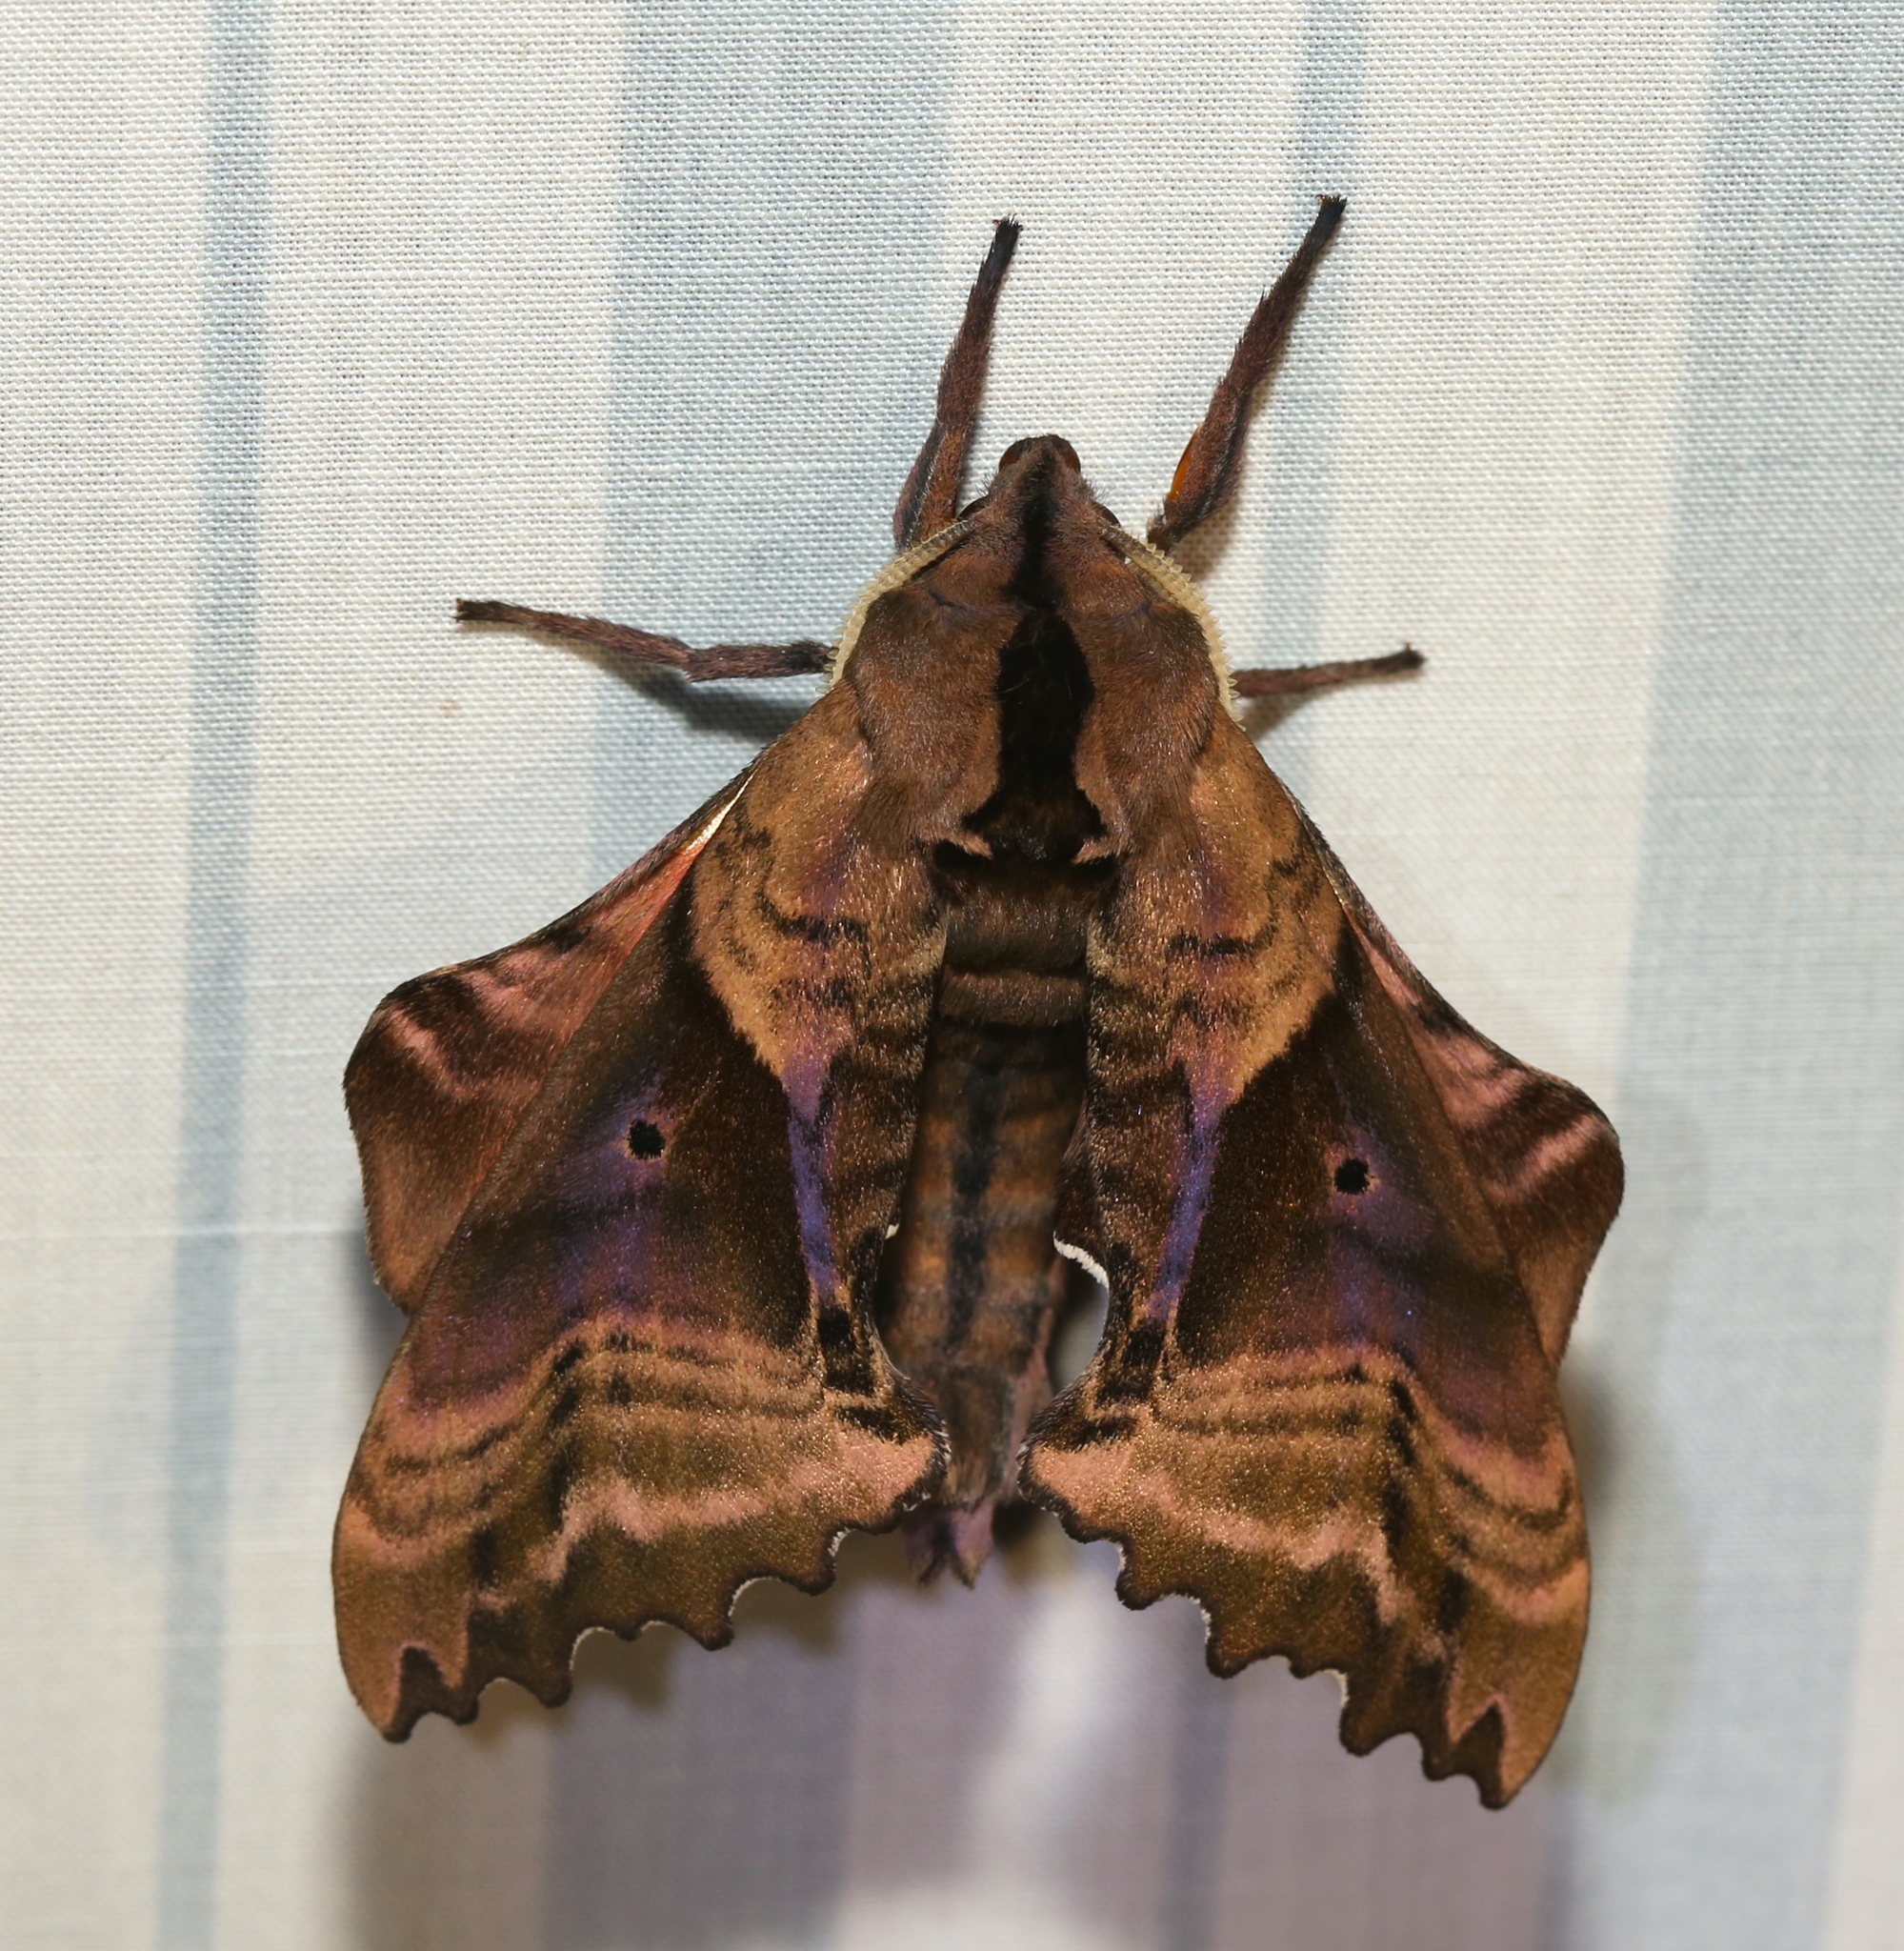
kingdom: Animalia
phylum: Arthropoda
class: Insecta
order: Lepidoptera
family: Sphingidae
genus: Paonias
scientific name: Paonias excaecata
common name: Blind-eyed sphinx
